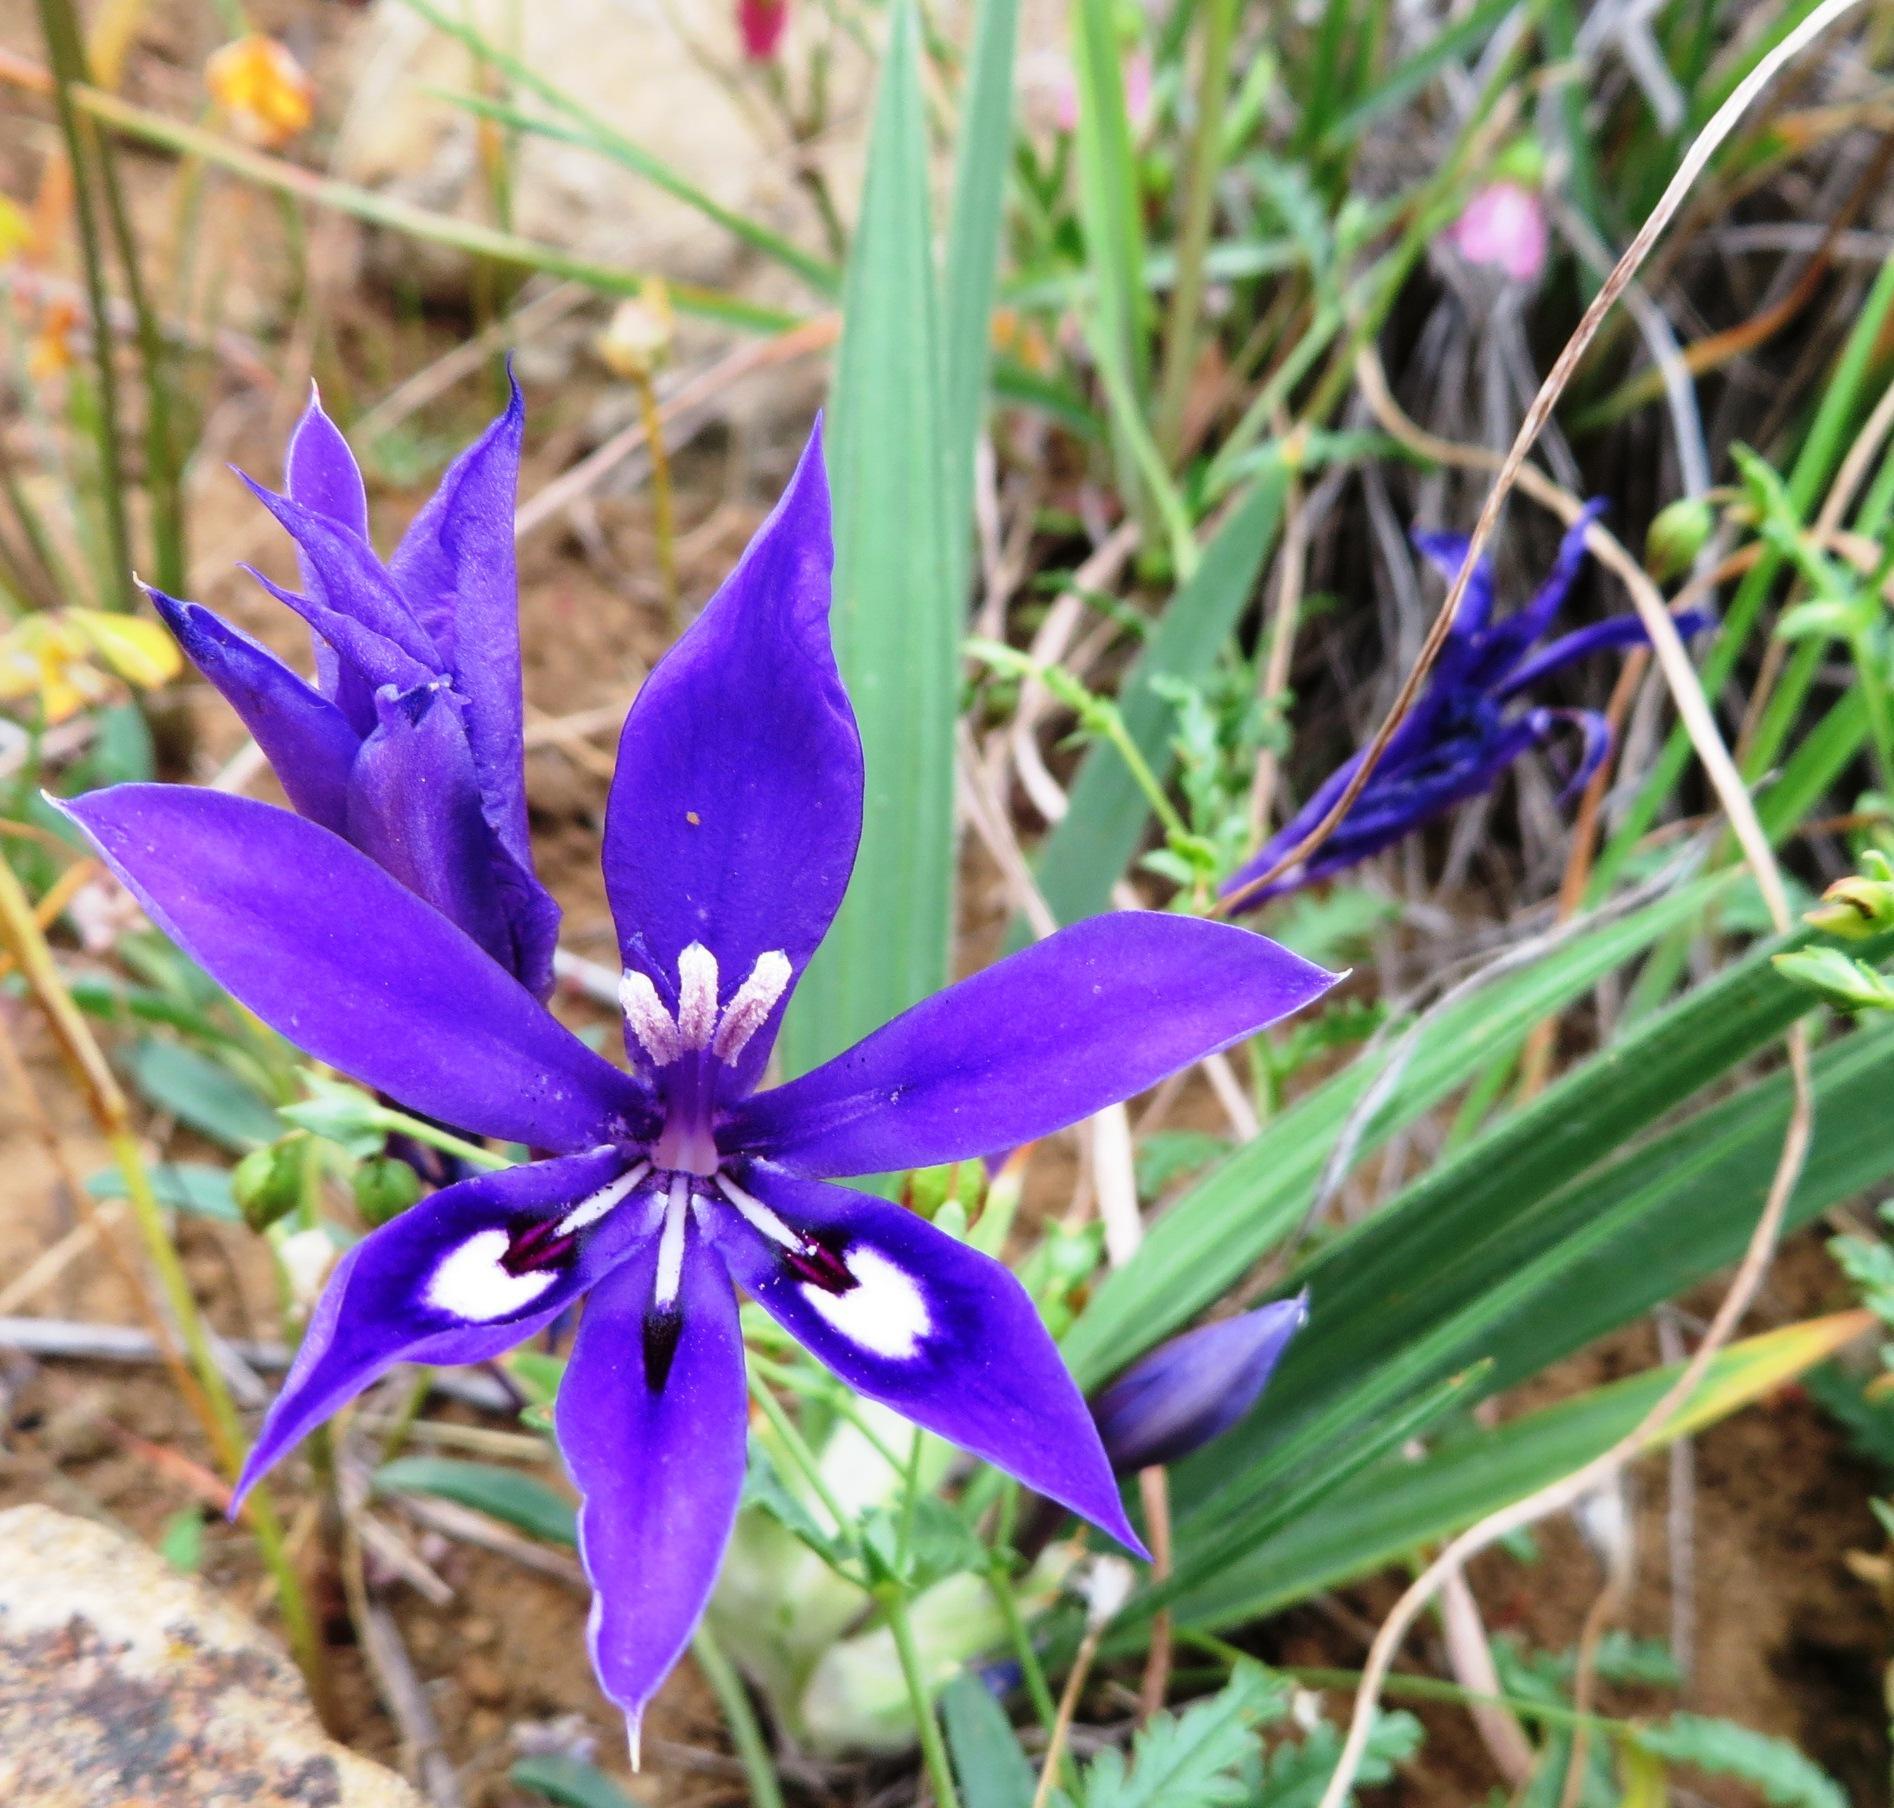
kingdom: Plantae
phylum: Tracheophyta
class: Liliopsida
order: Asparagales
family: Iridaceae
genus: Babiana
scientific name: Babiana framesii
